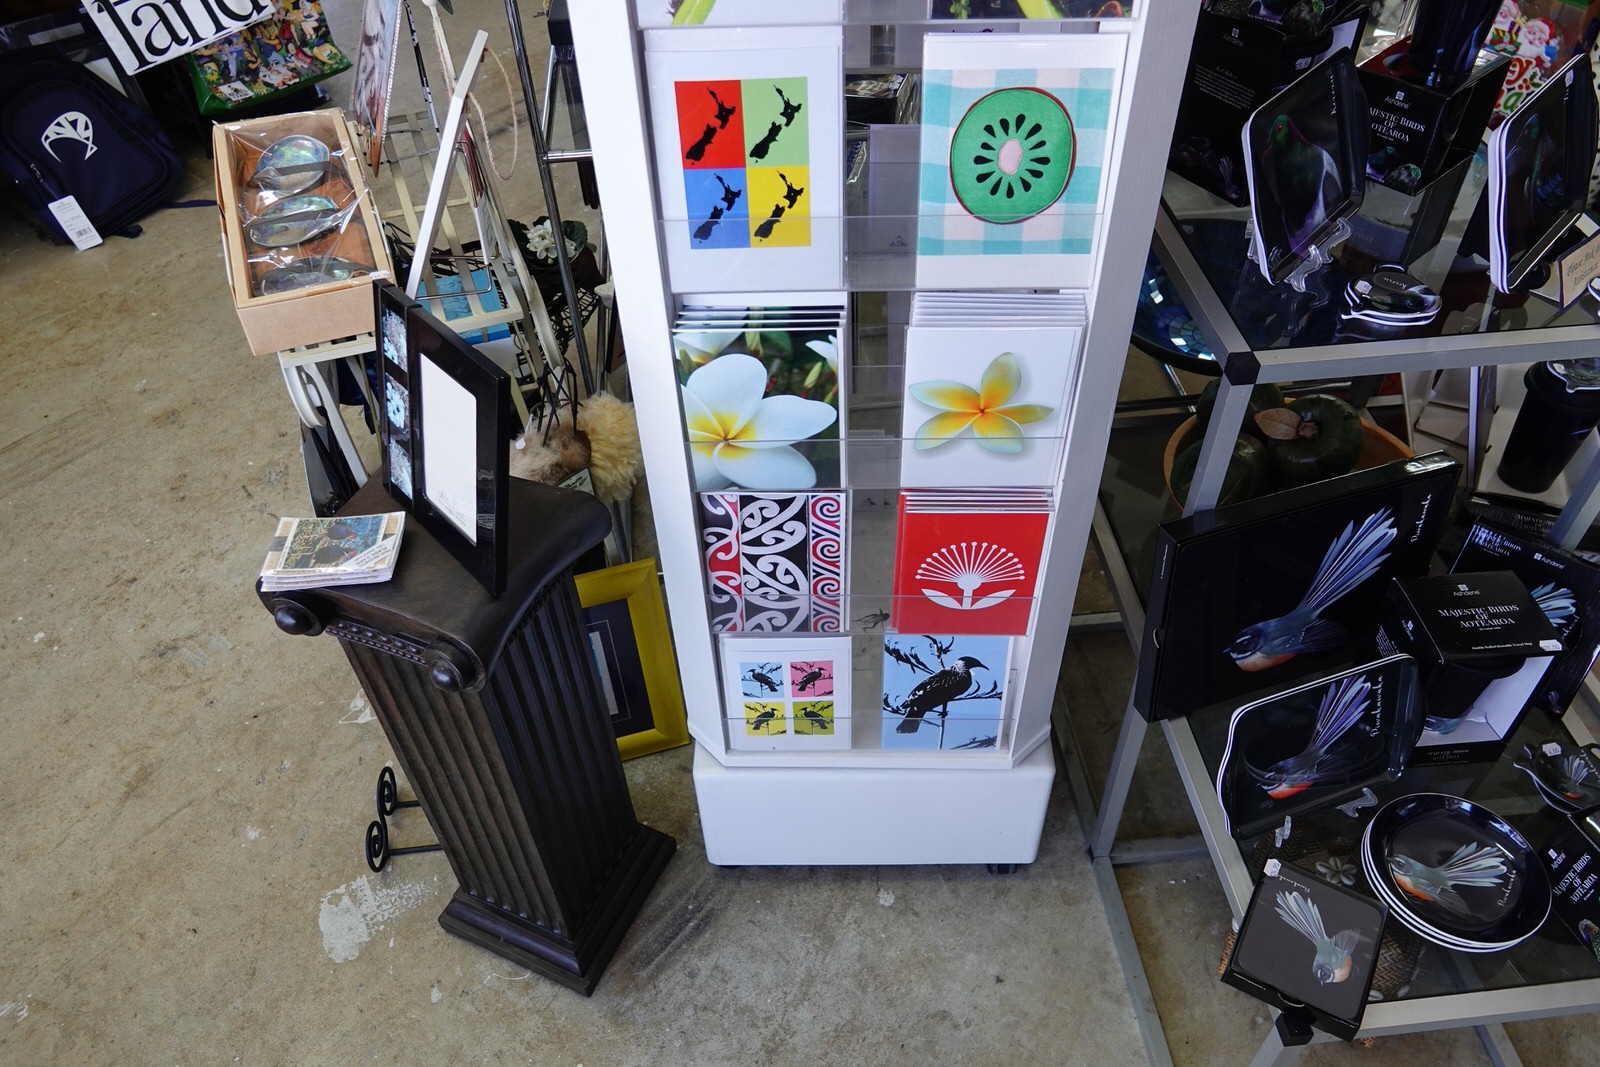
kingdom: Animalia
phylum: Arthropoda
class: Insecta
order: Orthoptera
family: Gryllidae
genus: Teleogryllus
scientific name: Teleogryllus commodus
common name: Black field cricket
